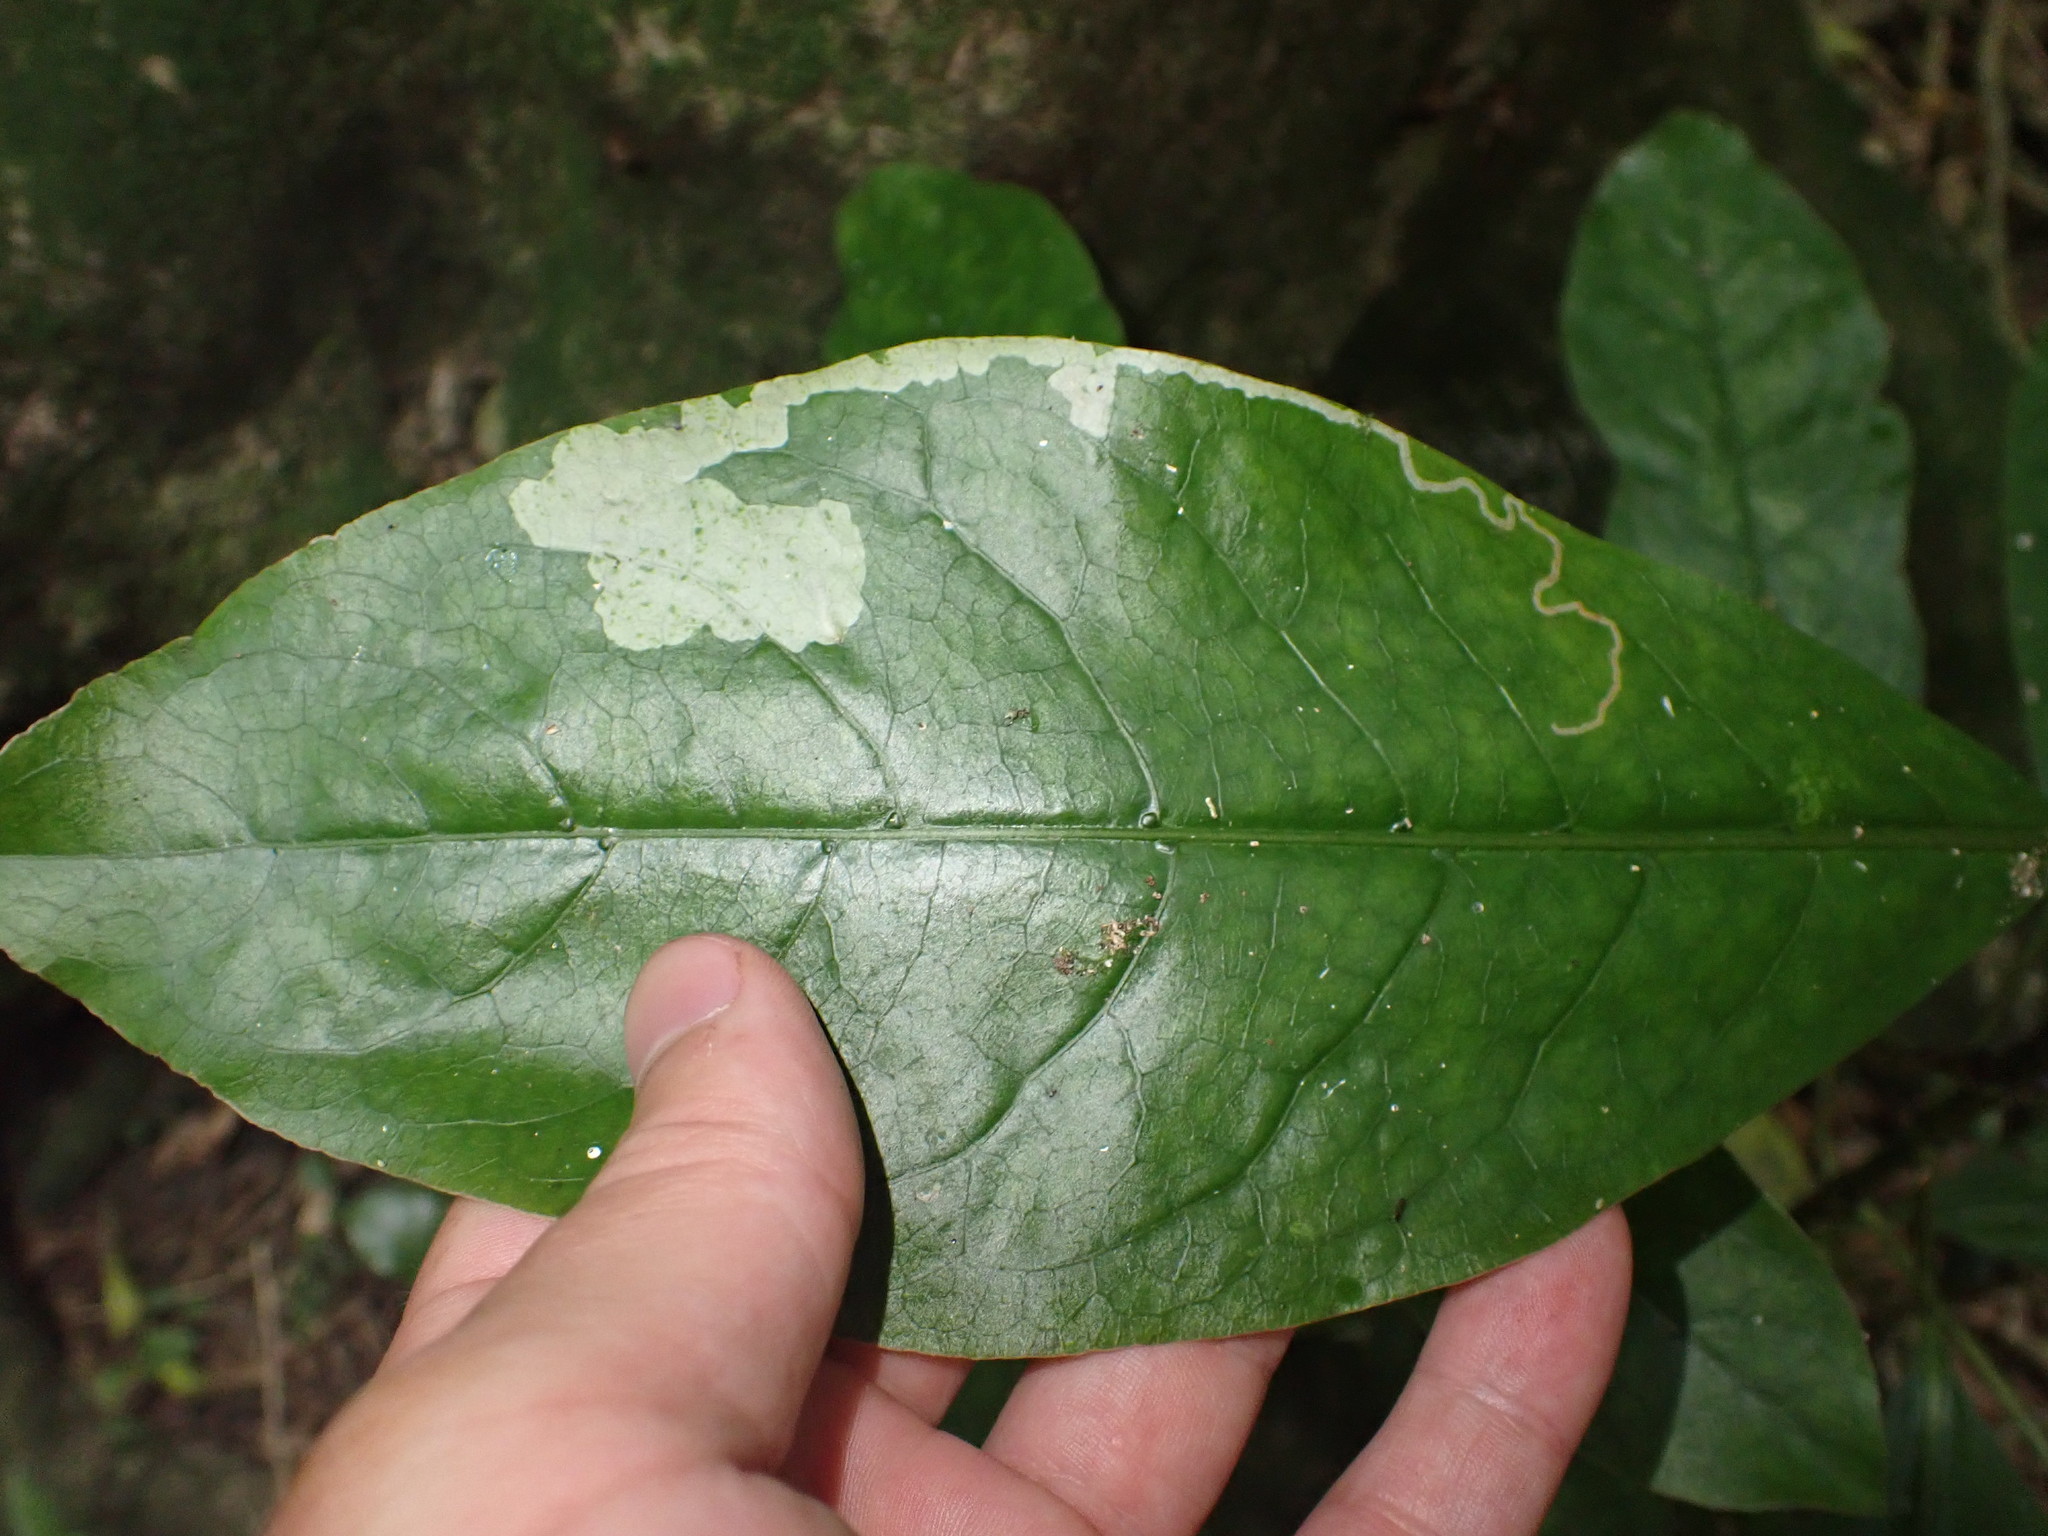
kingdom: Animalia
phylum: Arthropoda
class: Insecta
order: Lepidoptera
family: Gracillariidae
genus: Corythoxestis
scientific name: Corythoxestis zorionella
